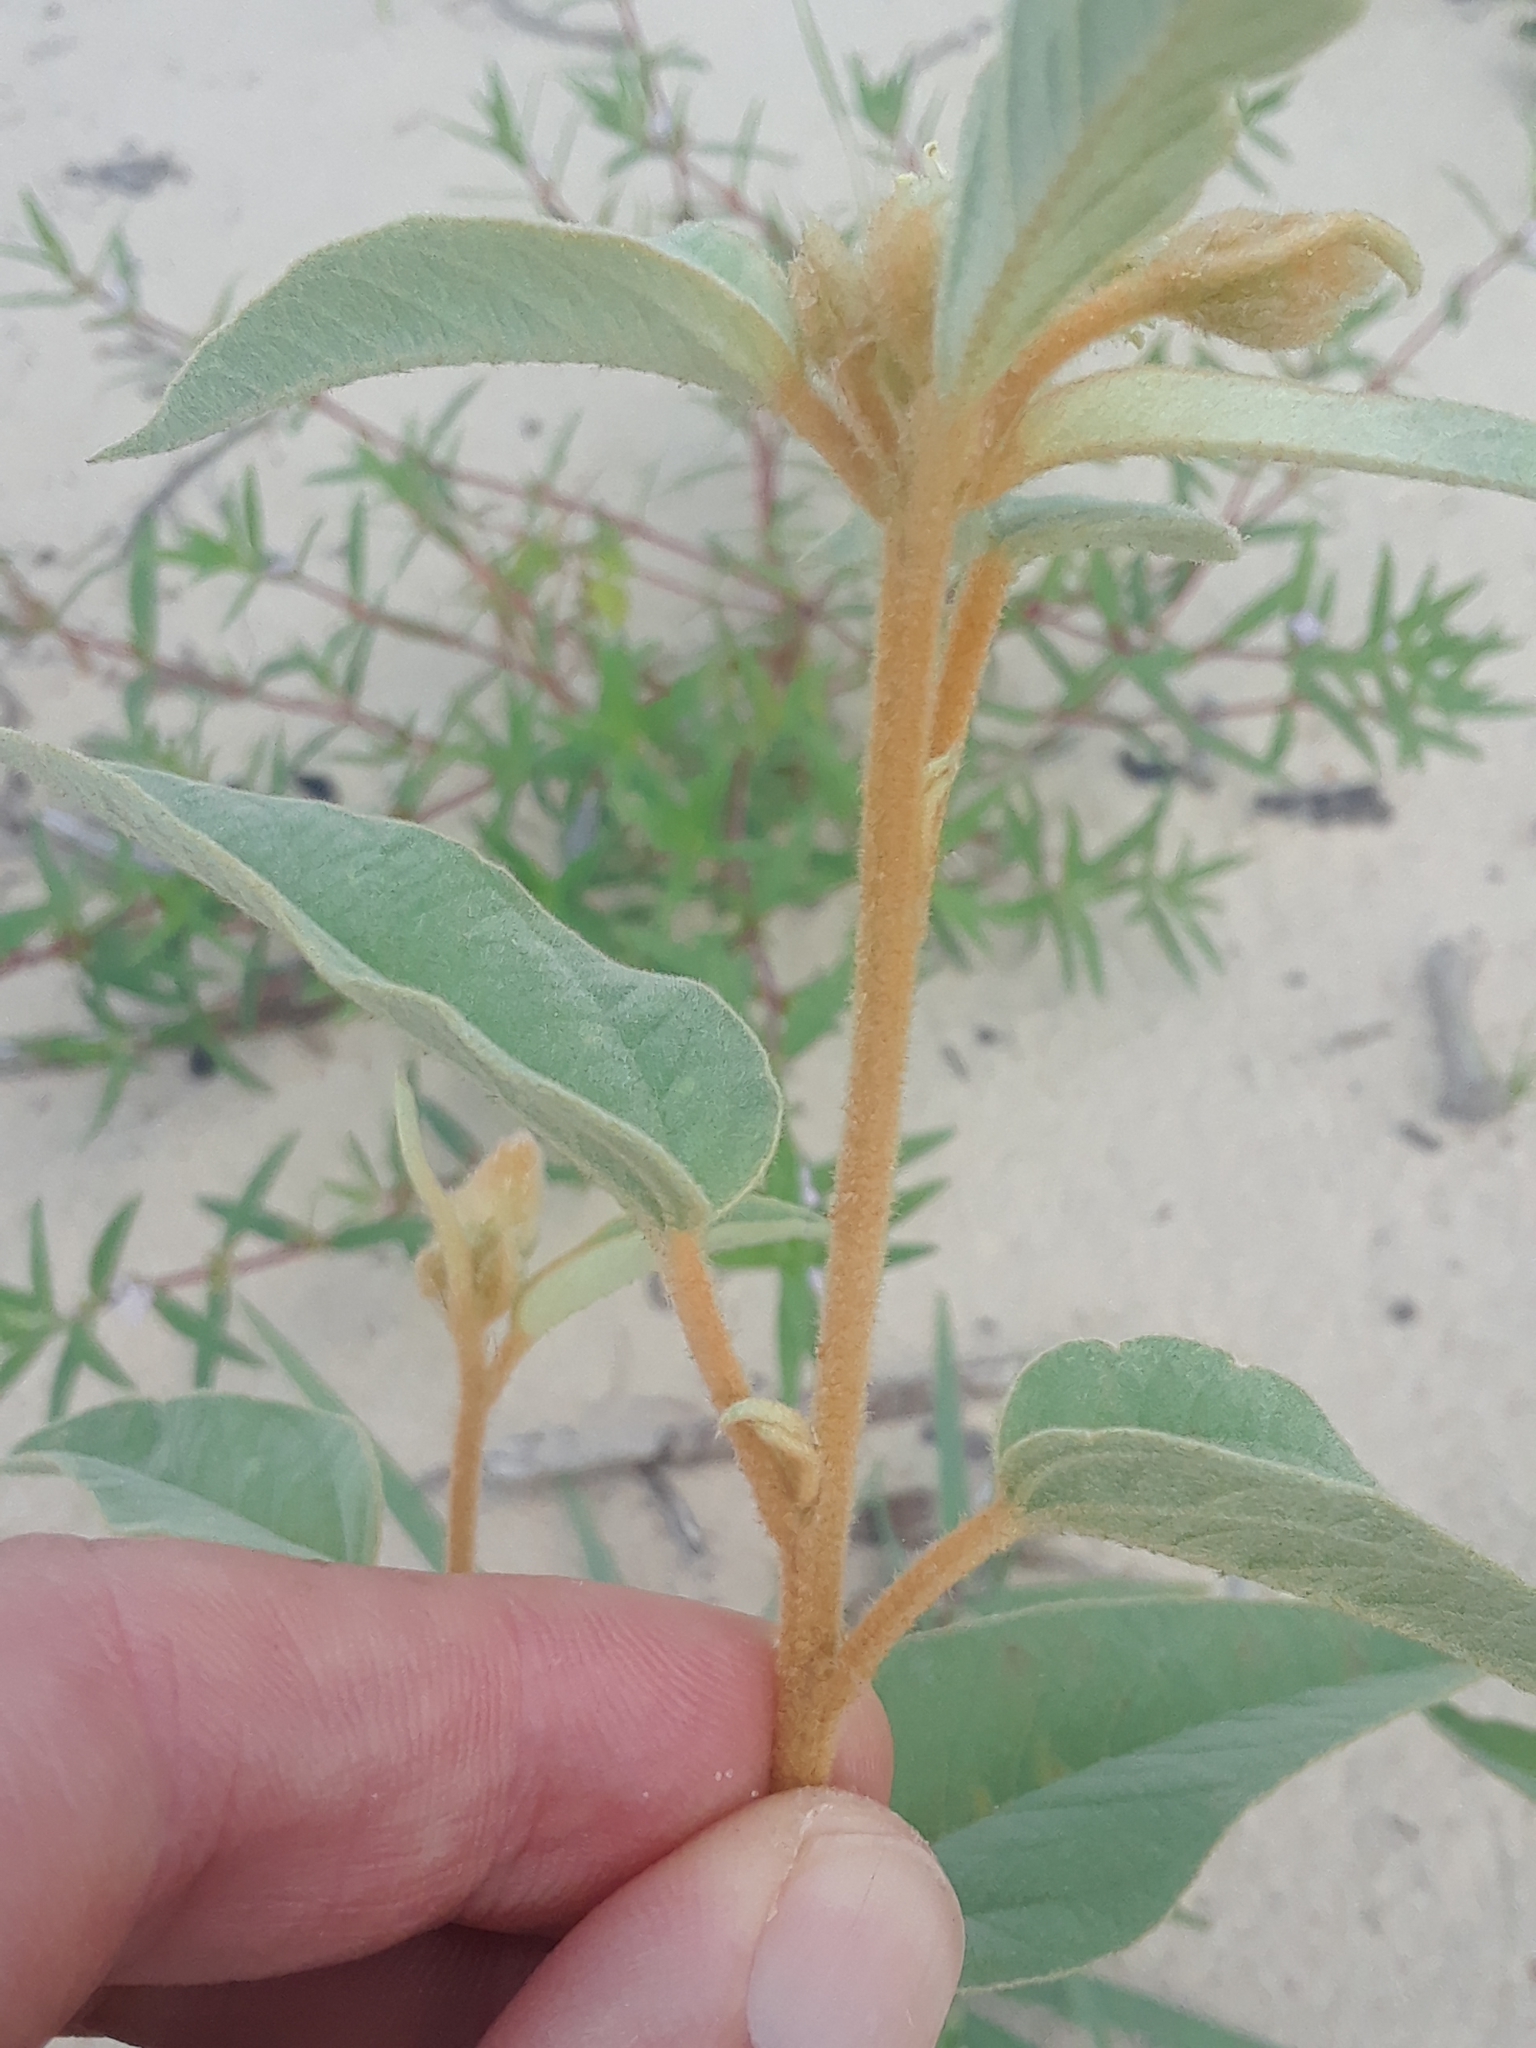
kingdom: Plantae
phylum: Tracheophyta
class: Magnoliopsida
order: Malpighiales
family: Euphorbiaceae
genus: Croton
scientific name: Croton lindheimeri
